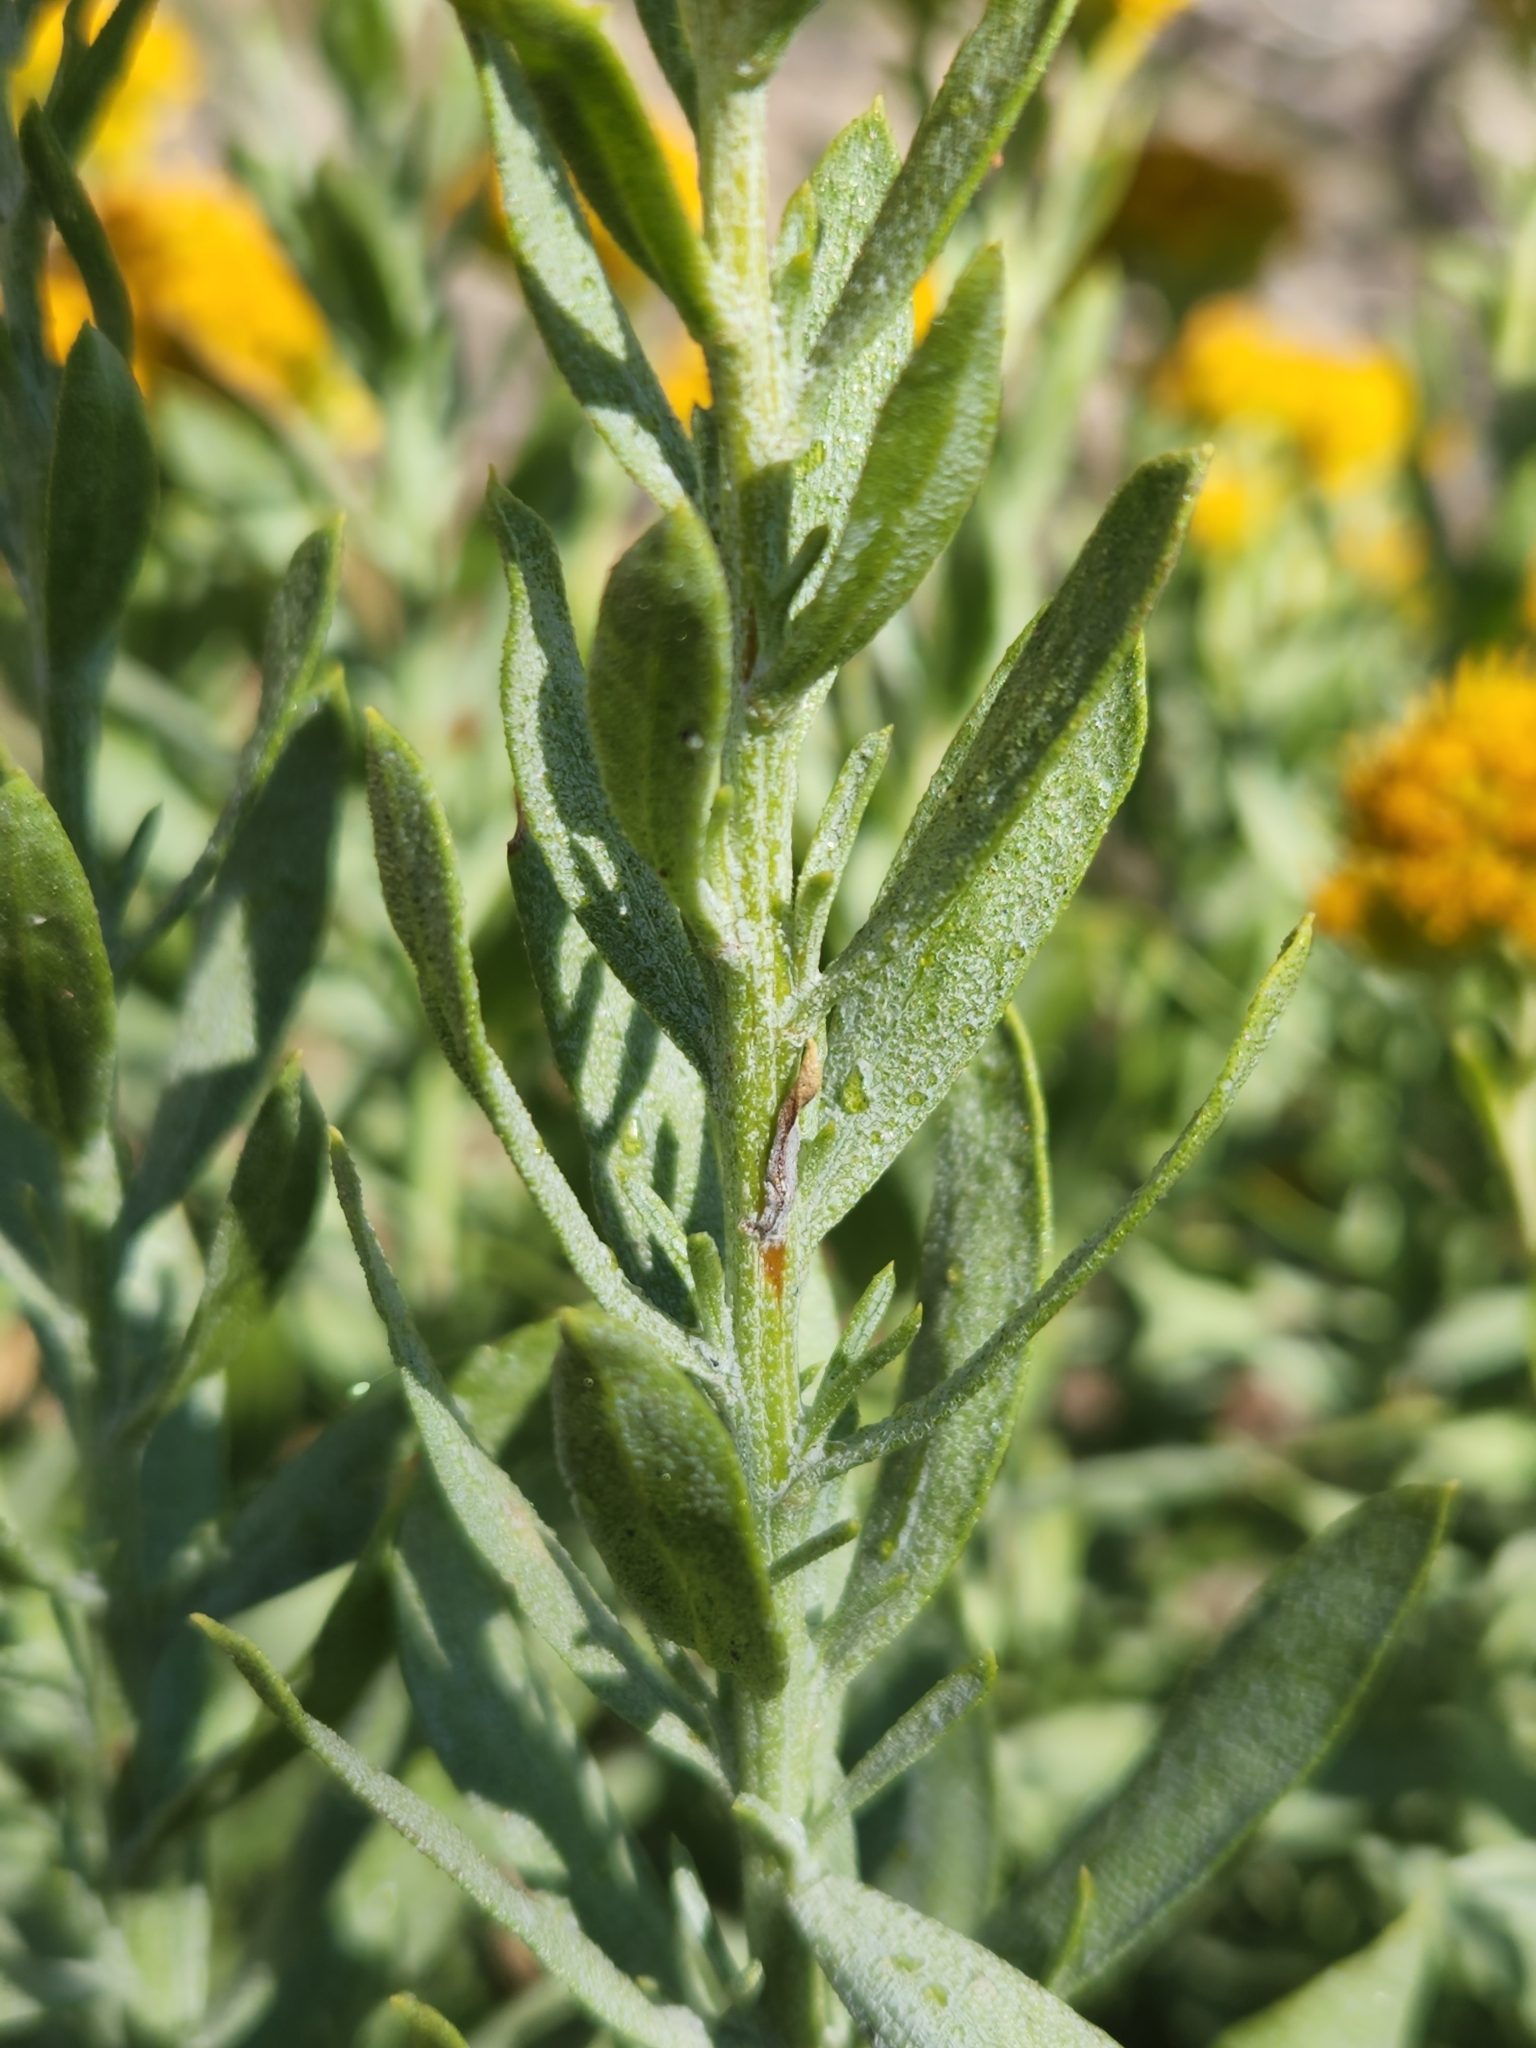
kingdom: Plantae
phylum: Tracheophyta
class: Magnoliopsida
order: Asterales
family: Asteraceae
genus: Ericameria
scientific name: Ericameria parishii
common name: Parish's goldenbush
